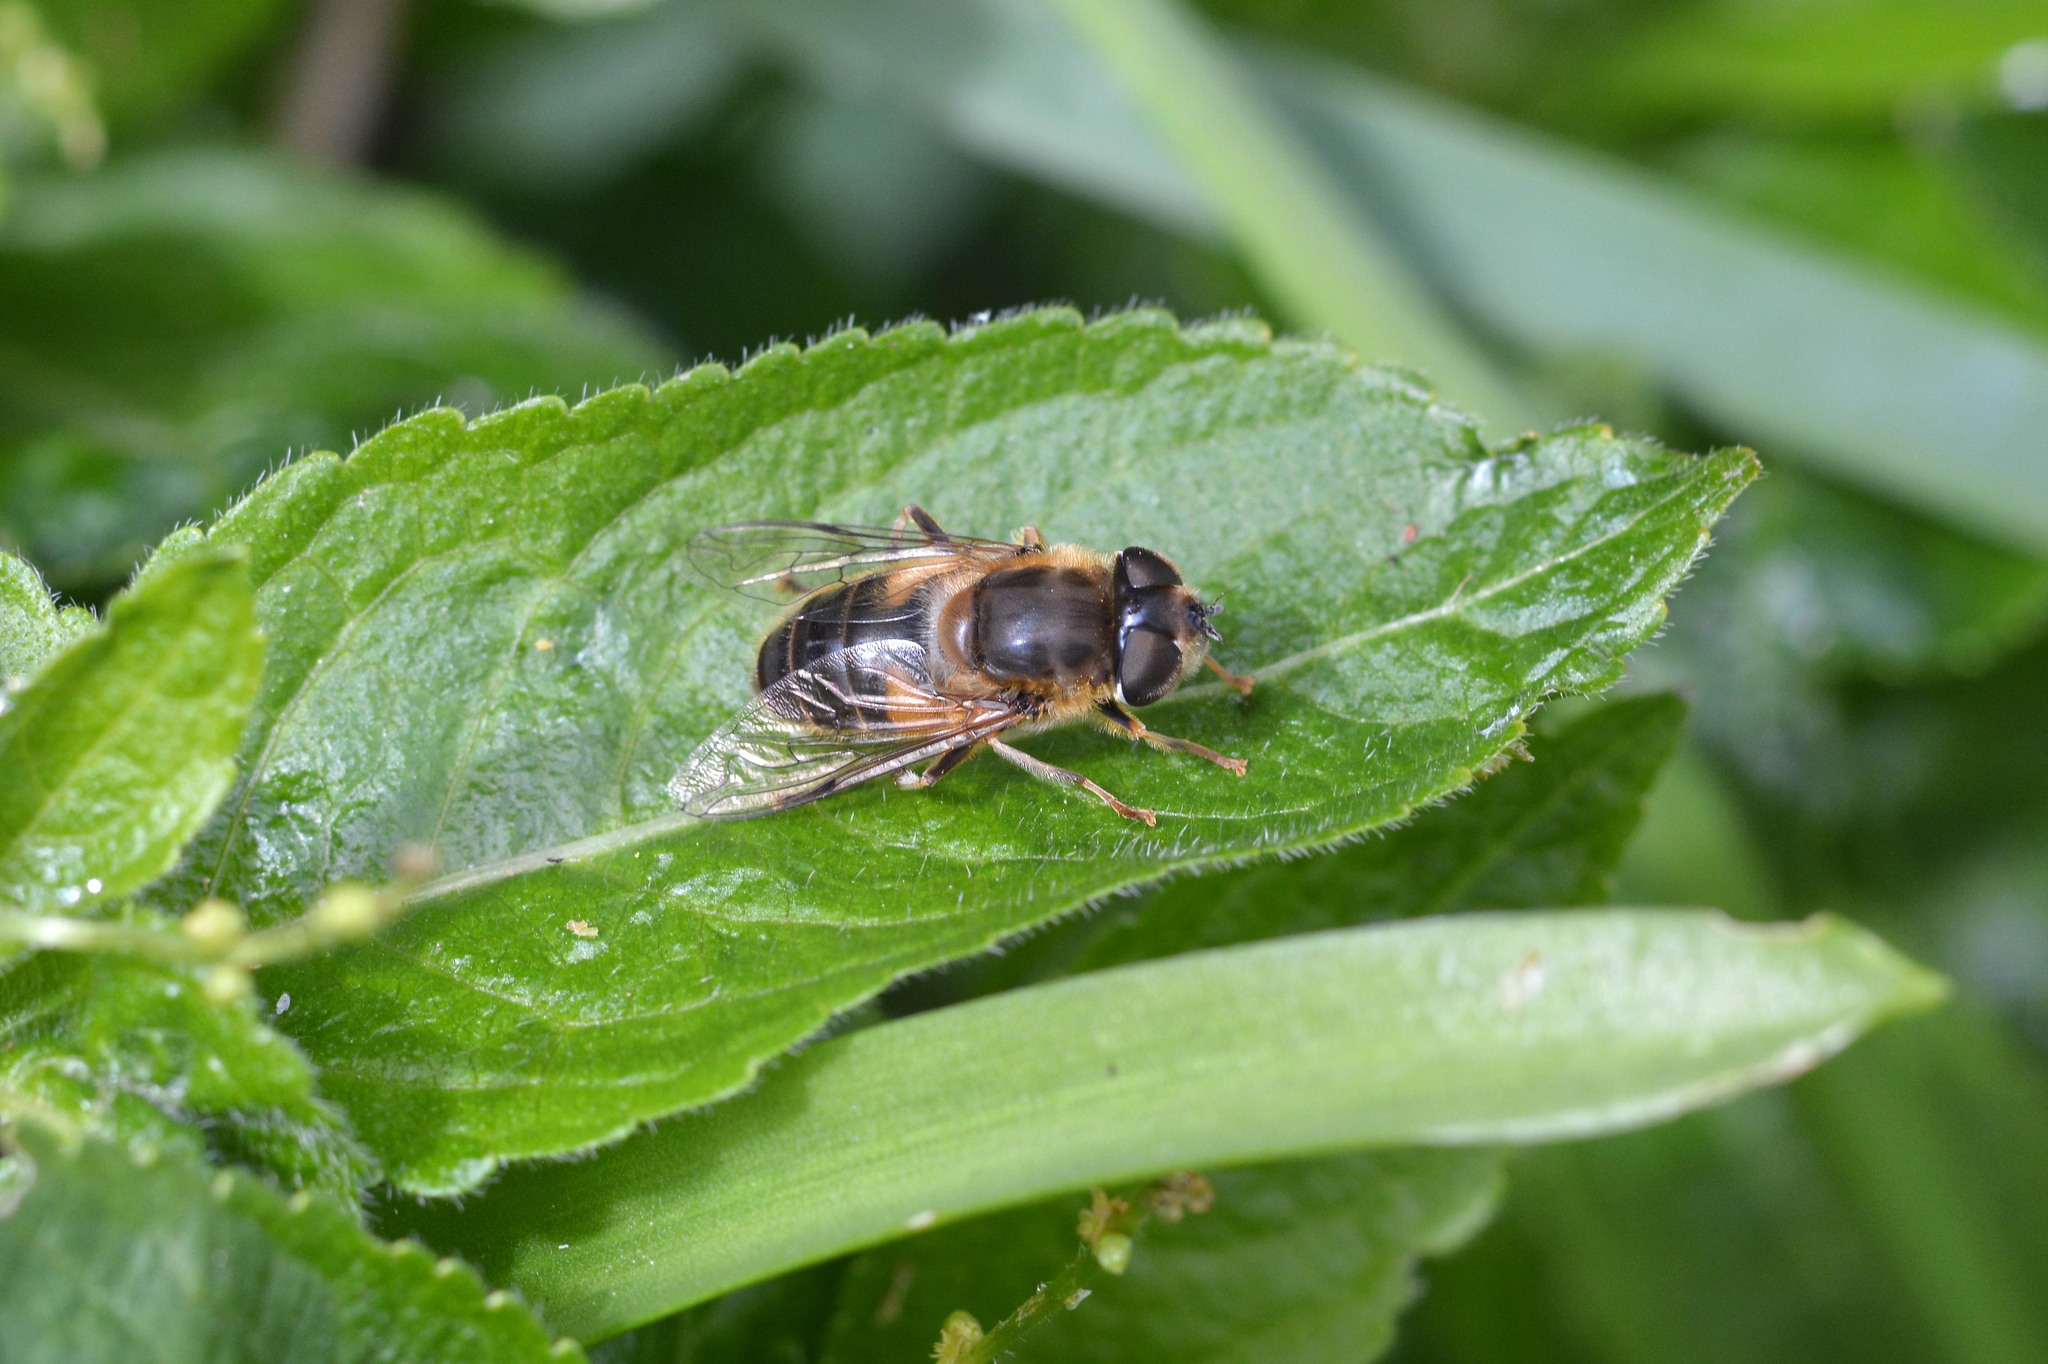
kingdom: Animalia
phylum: Arthropoda
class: Insecta
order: Diptera
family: Syrphidae
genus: Eristalis
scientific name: Eristalis pertinax
